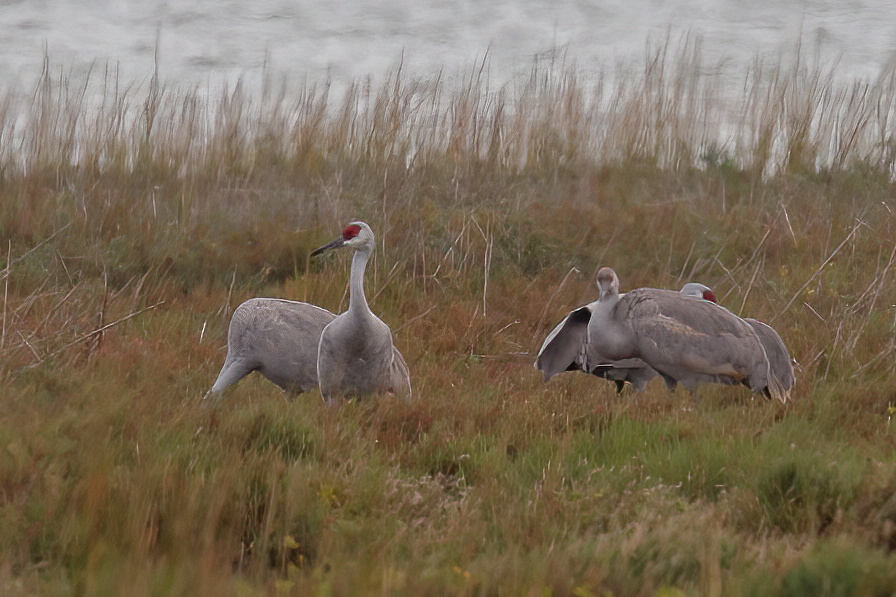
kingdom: Animalia
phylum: Chordata
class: Aves
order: Gruiformes
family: Gruidae
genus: Grus
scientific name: Grus canadensis
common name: Sandhill crane
